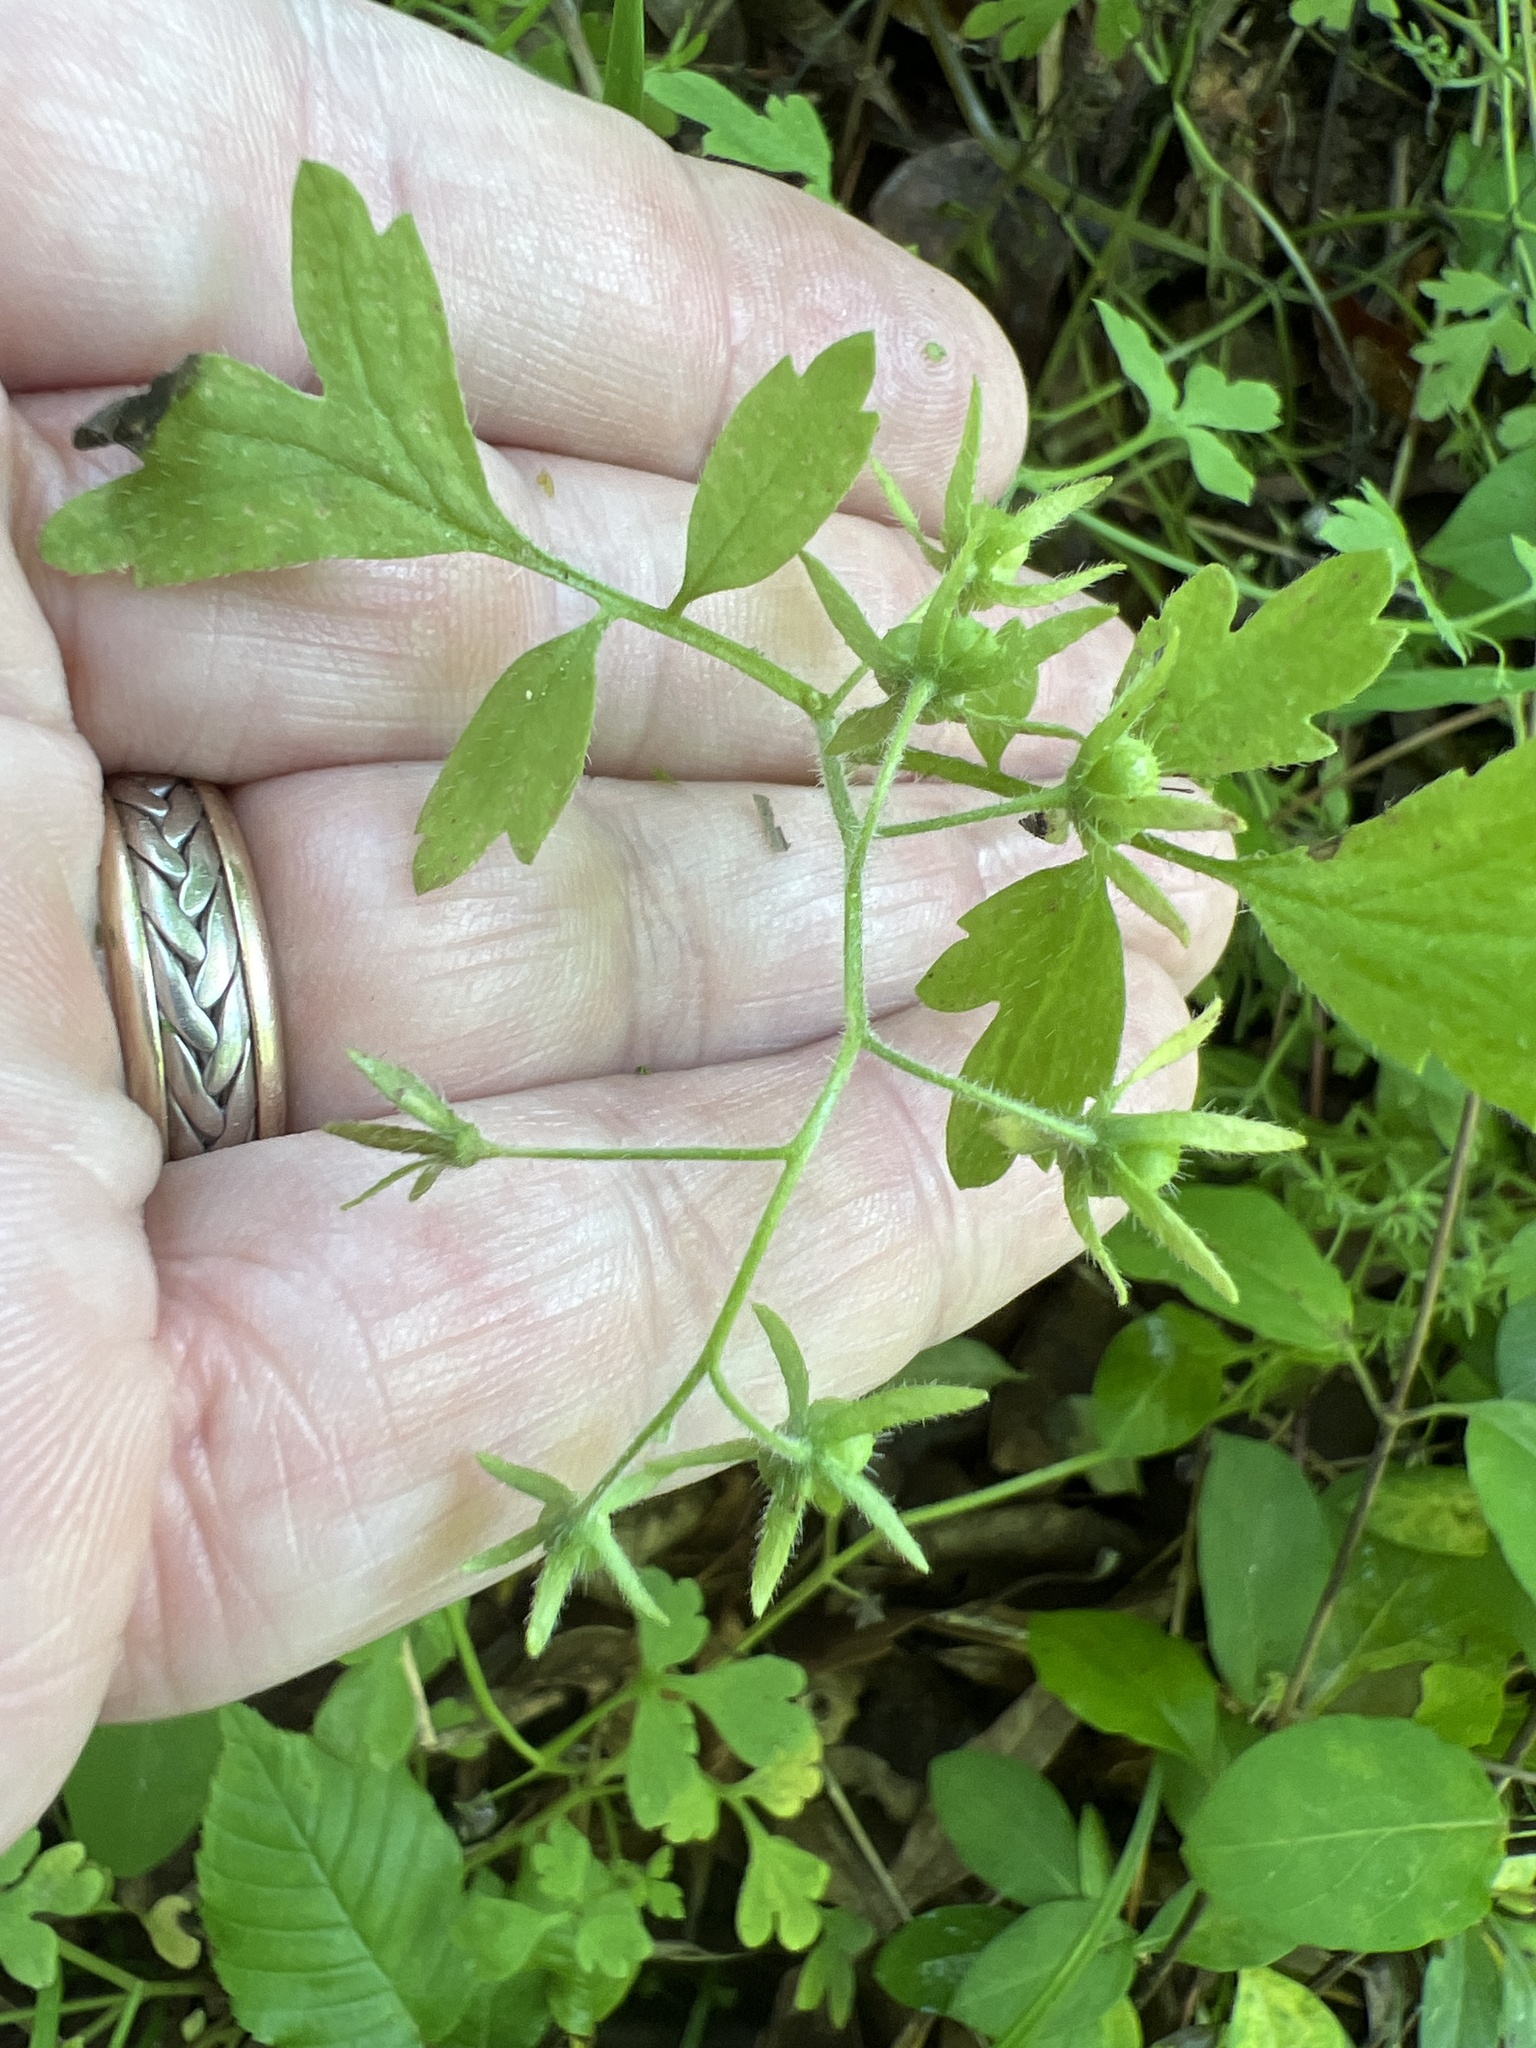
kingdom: Plantae
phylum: Tracheophyta
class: Magnoliopsida
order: Boraginales
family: Hydrophyllaceae
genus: Phacelia
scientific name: Phacelia covillei
